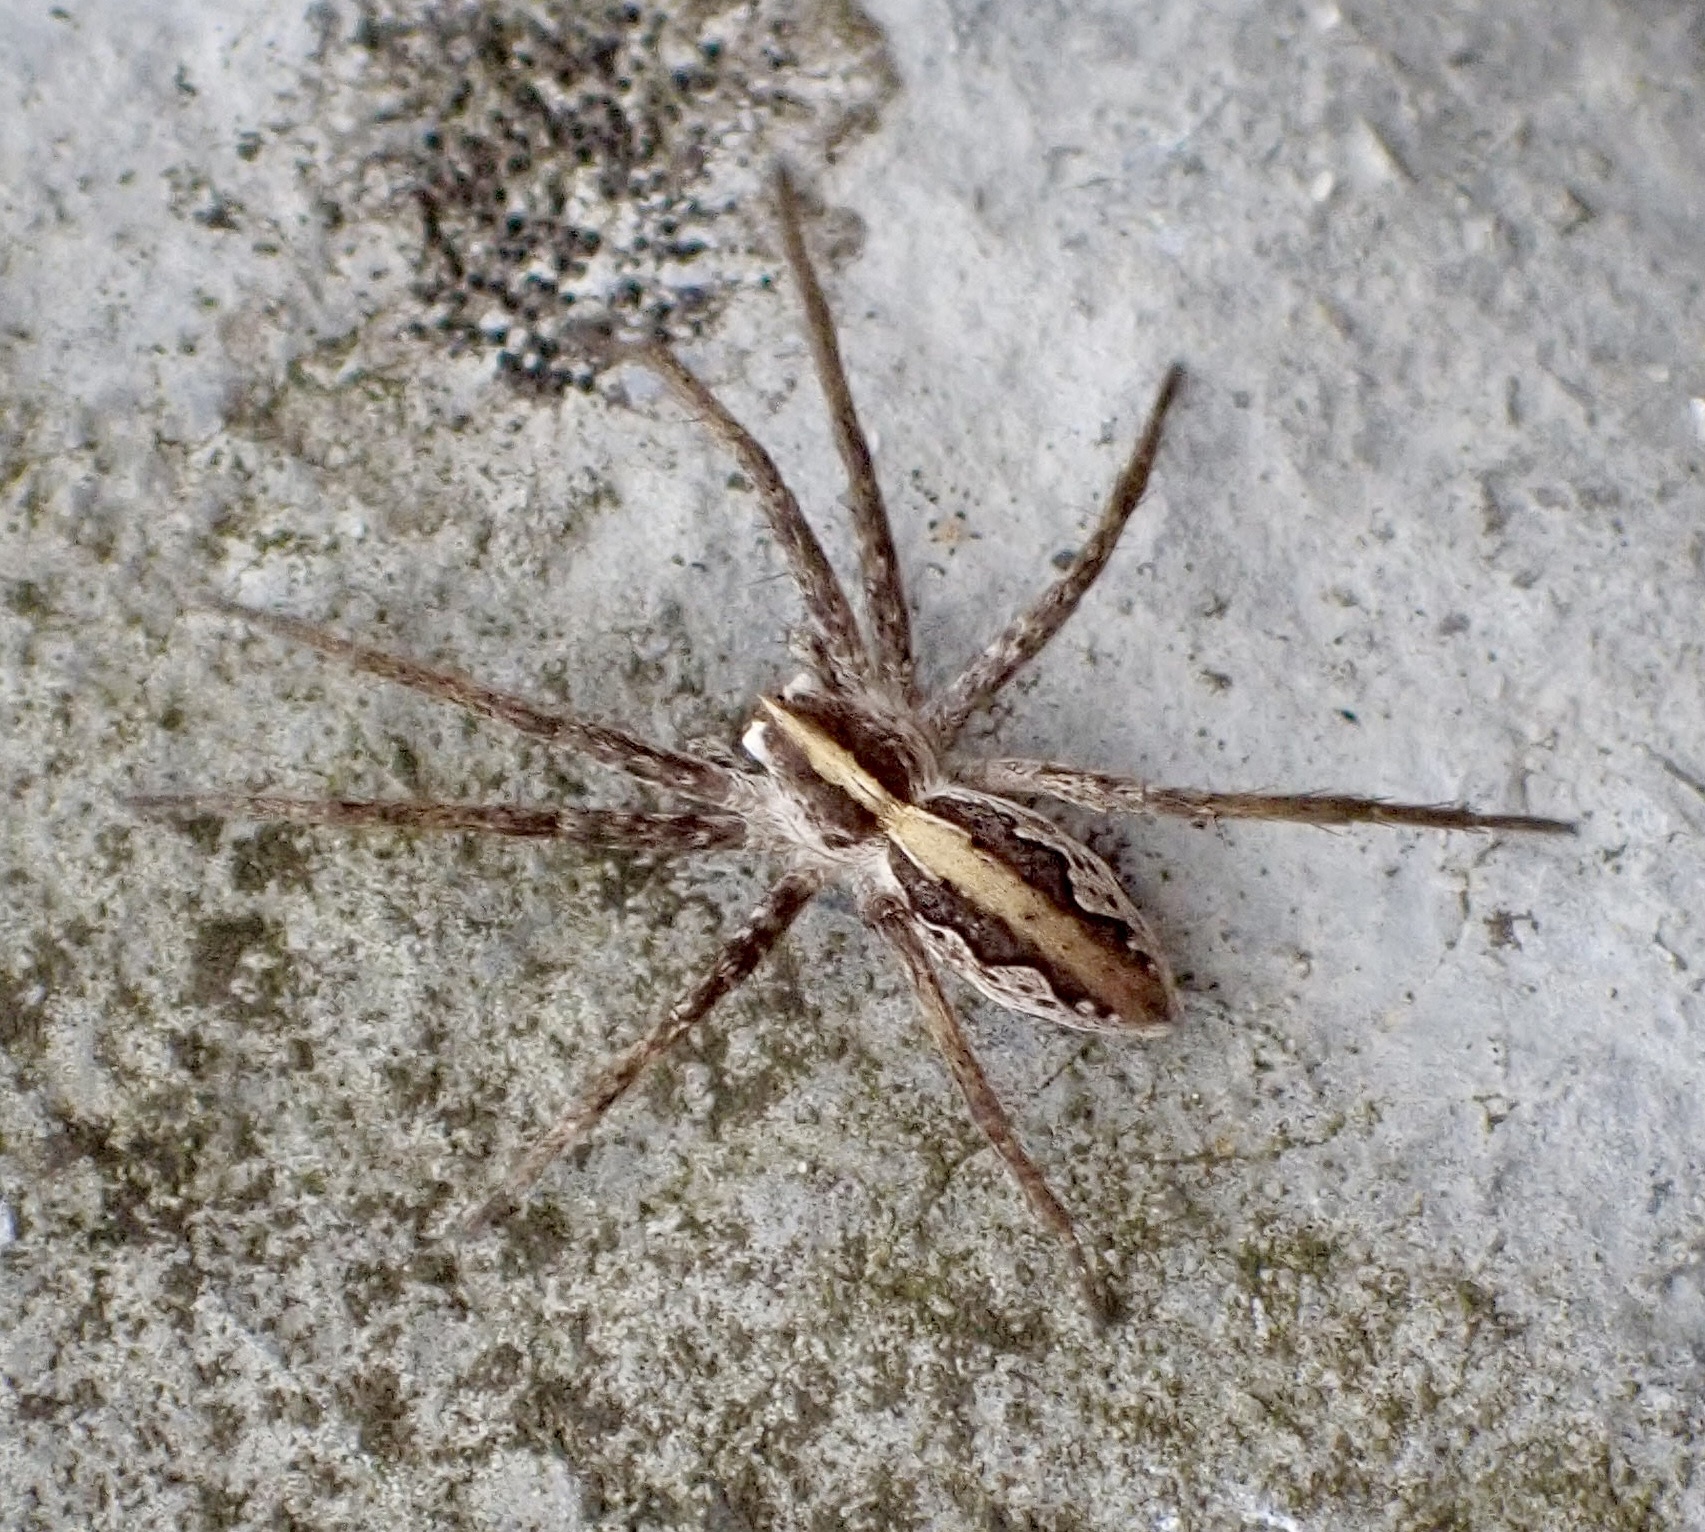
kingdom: Animalia
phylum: Arthropoda
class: Arachnida
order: Araneae
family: Pisauridae
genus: Pisaura
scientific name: Pisaura mirabilis
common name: Tent spider
